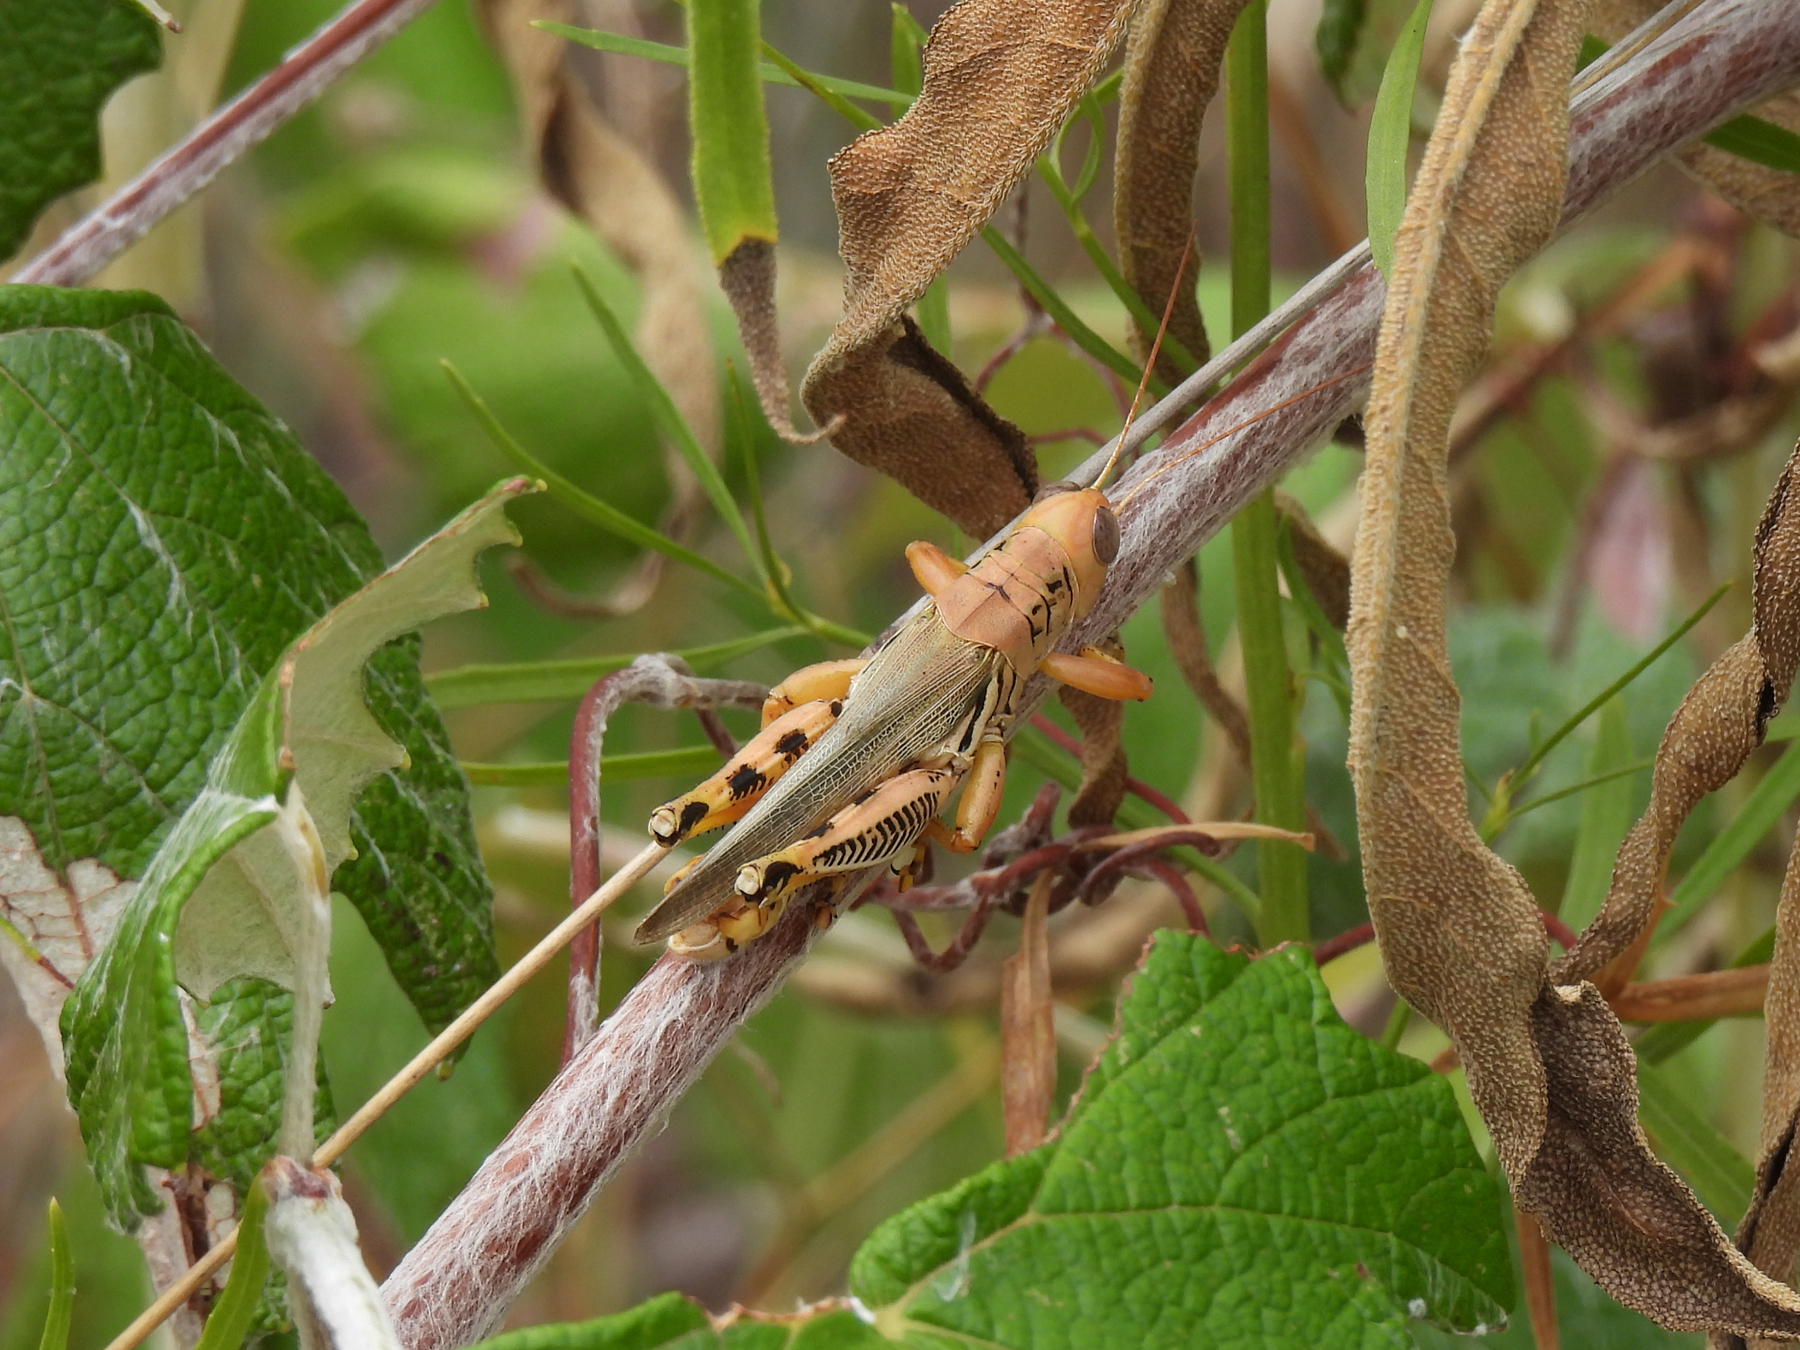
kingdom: Animalia
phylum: Arthropoda
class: Insecta
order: Orthoptera
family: Acrididae
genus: Melanoplus
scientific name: Melanoplus differentialis
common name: Differential grasshopper
